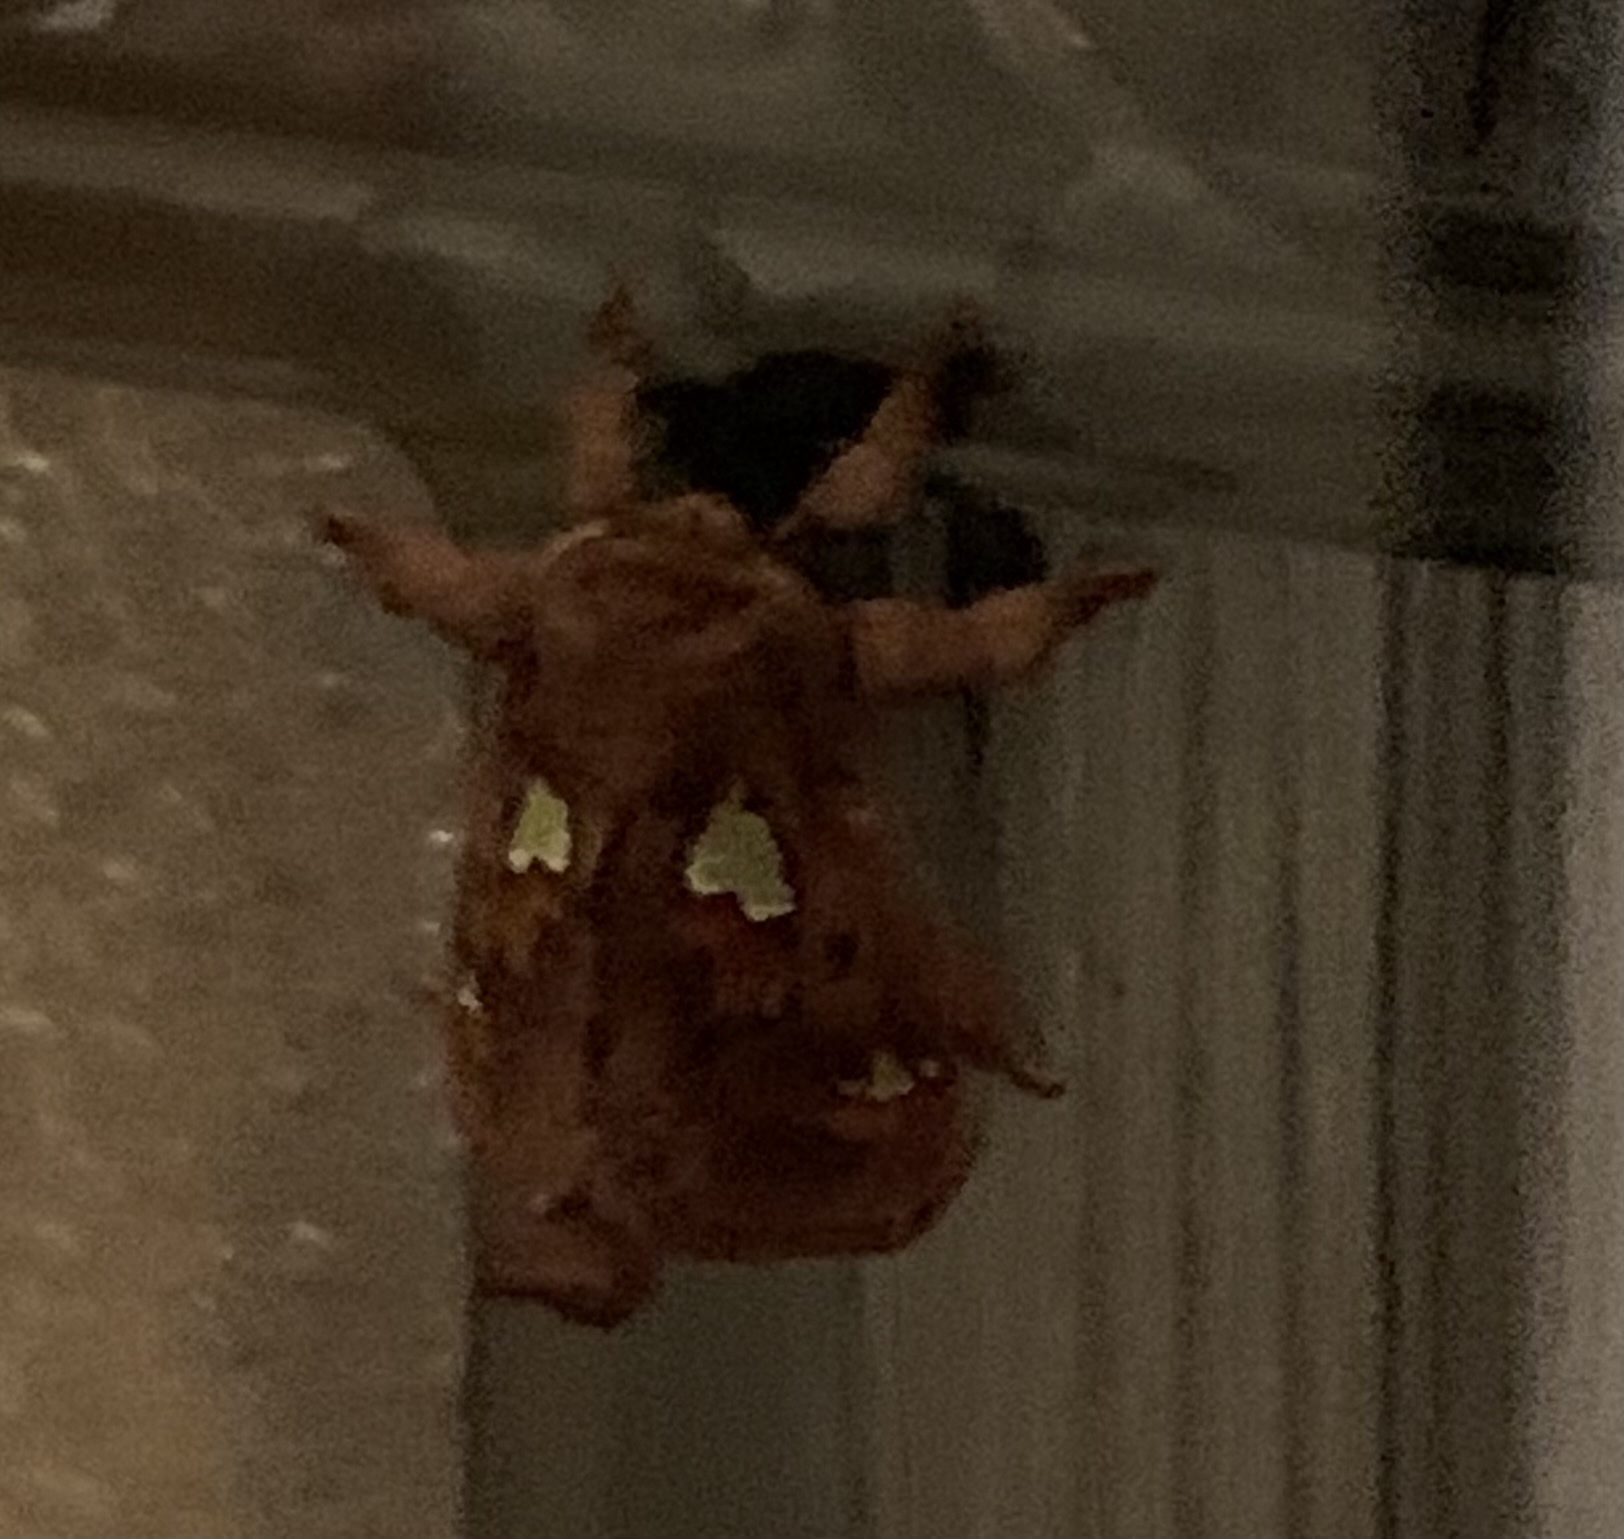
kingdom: Animalia
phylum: Arthropoda
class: Insecta
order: Lepidoptera
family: Limacodidae
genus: Euclea
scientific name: Euclea delphinii
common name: Spiny oak-slug moth
